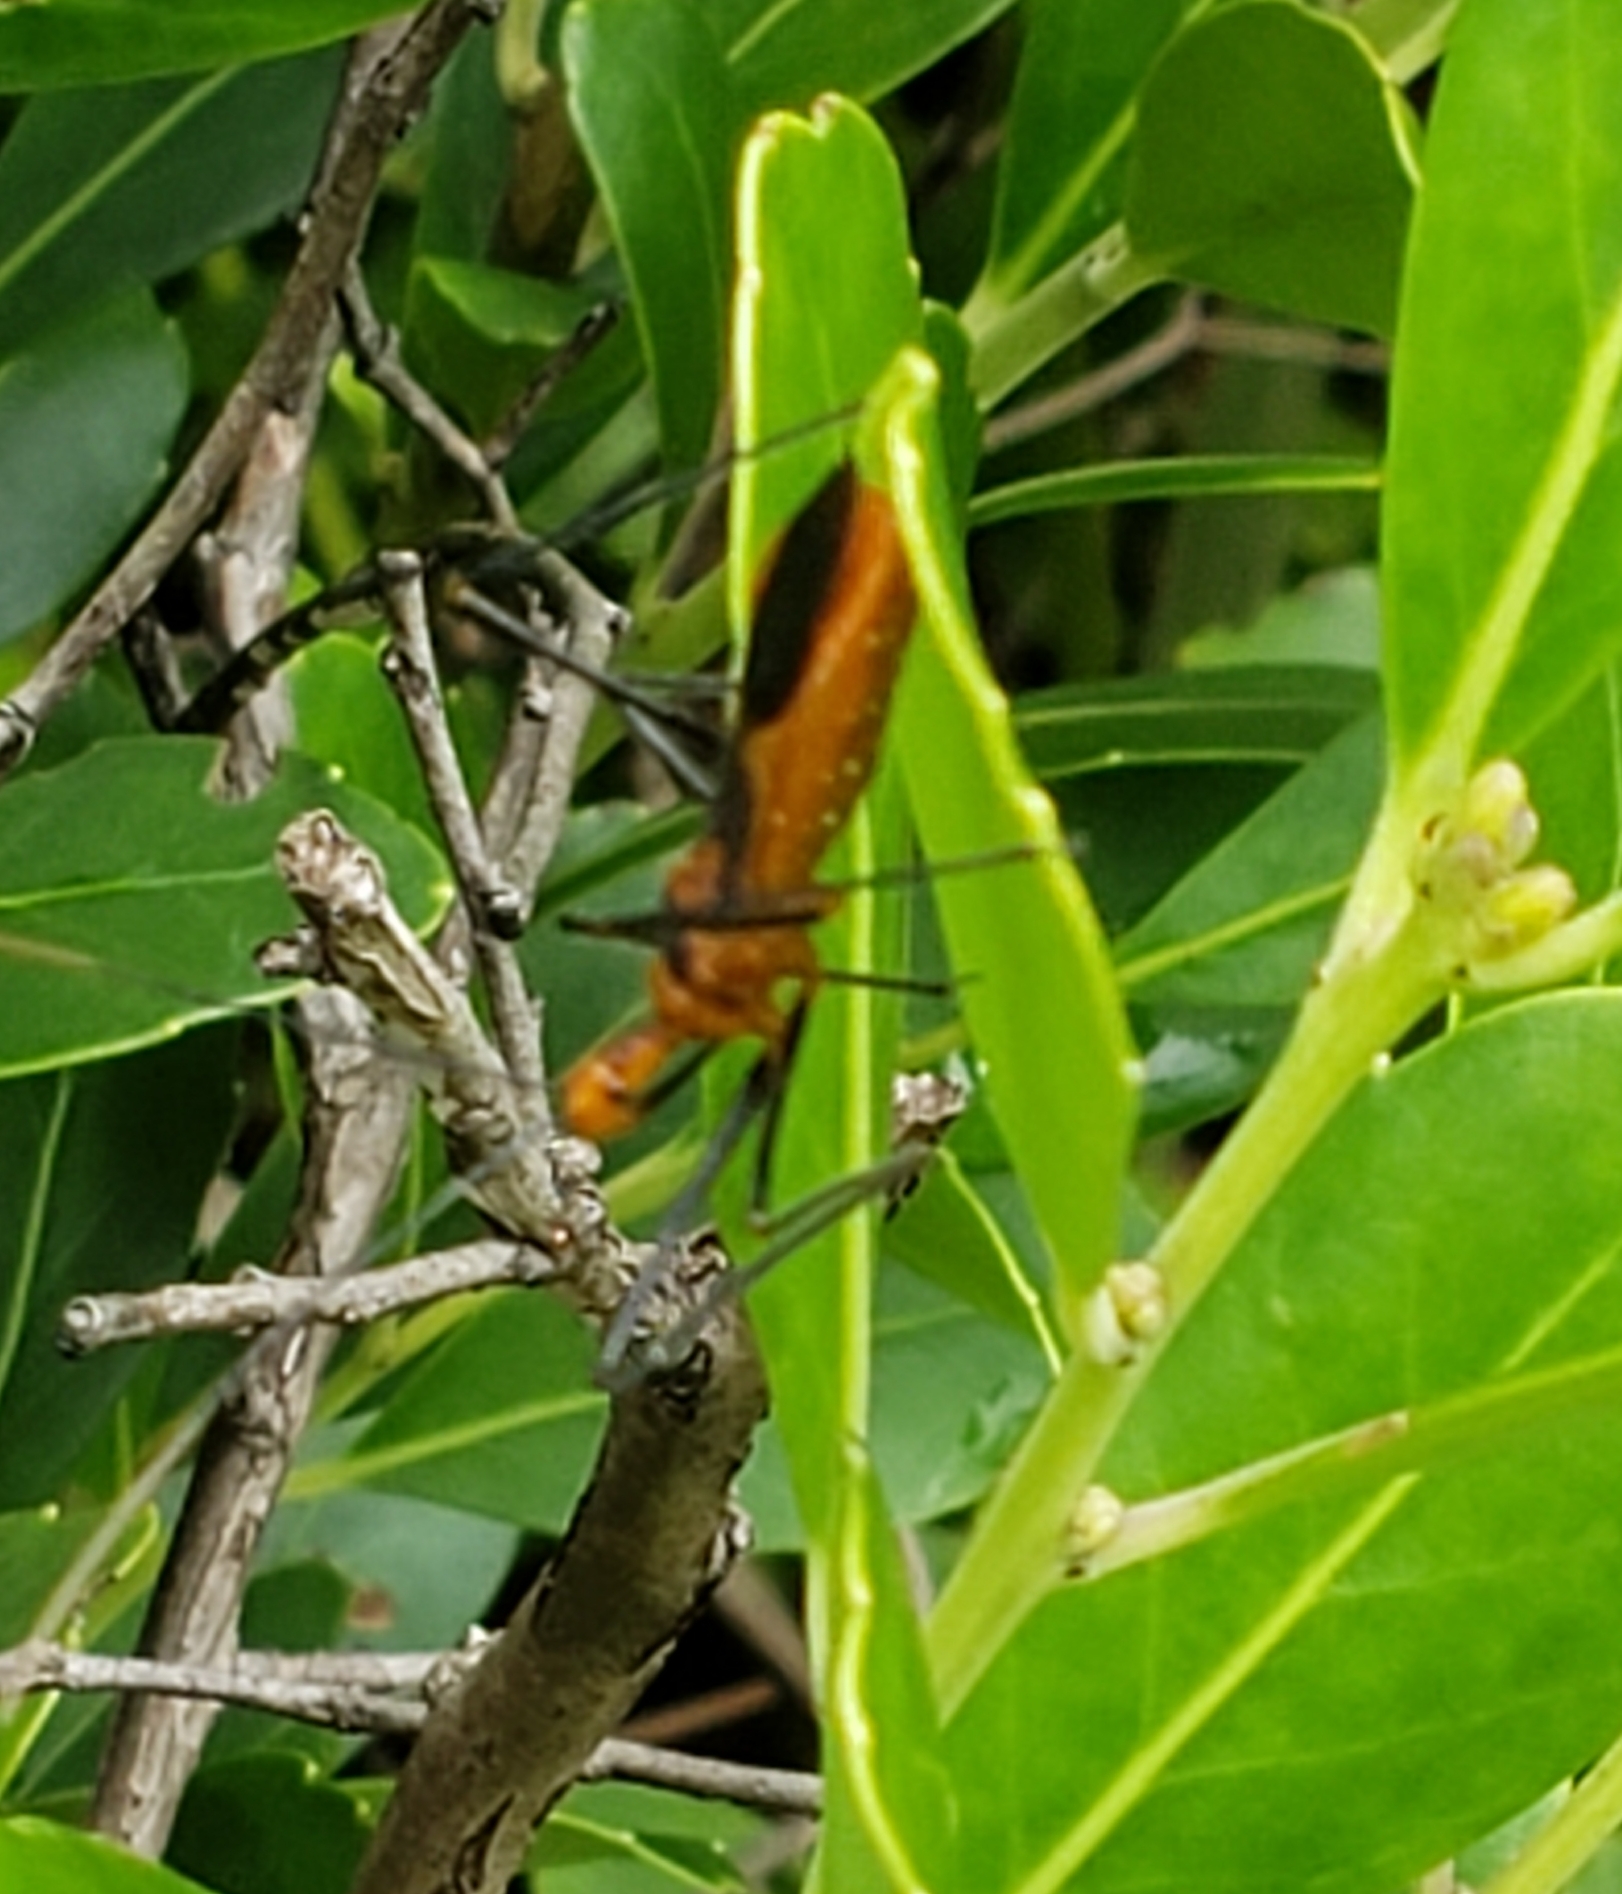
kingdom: Animalia
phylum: Arthropoda
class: Insecta
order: Hemiptera
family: Reduviidae
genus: Zelus
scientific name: Zelus longipes
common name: Milkweed assassin bug
